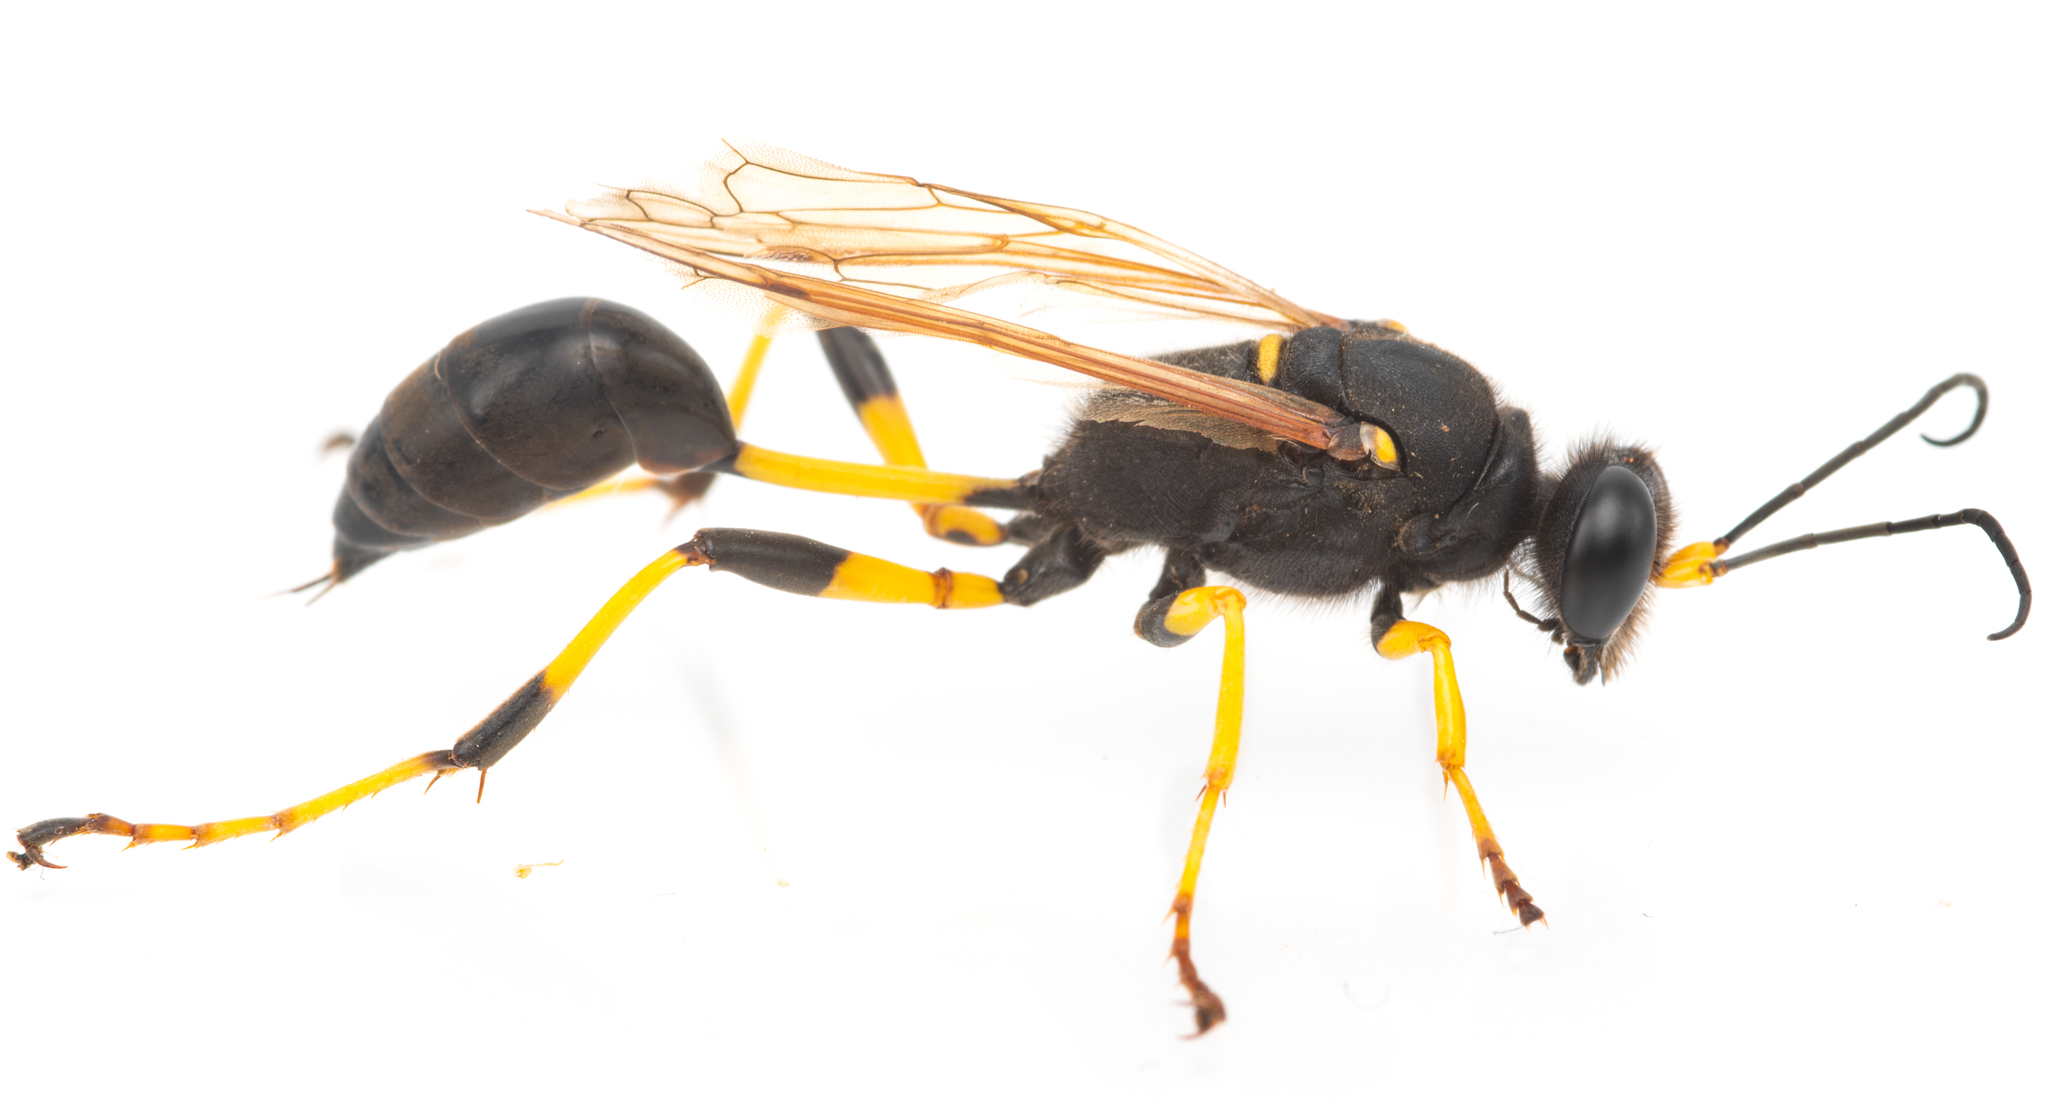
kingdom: Animalia
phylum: Arthropoda
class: Insecta
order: Hymenoptera
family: Sphecidae
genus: Sceliphron
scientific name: Sceliphron destillatorium
